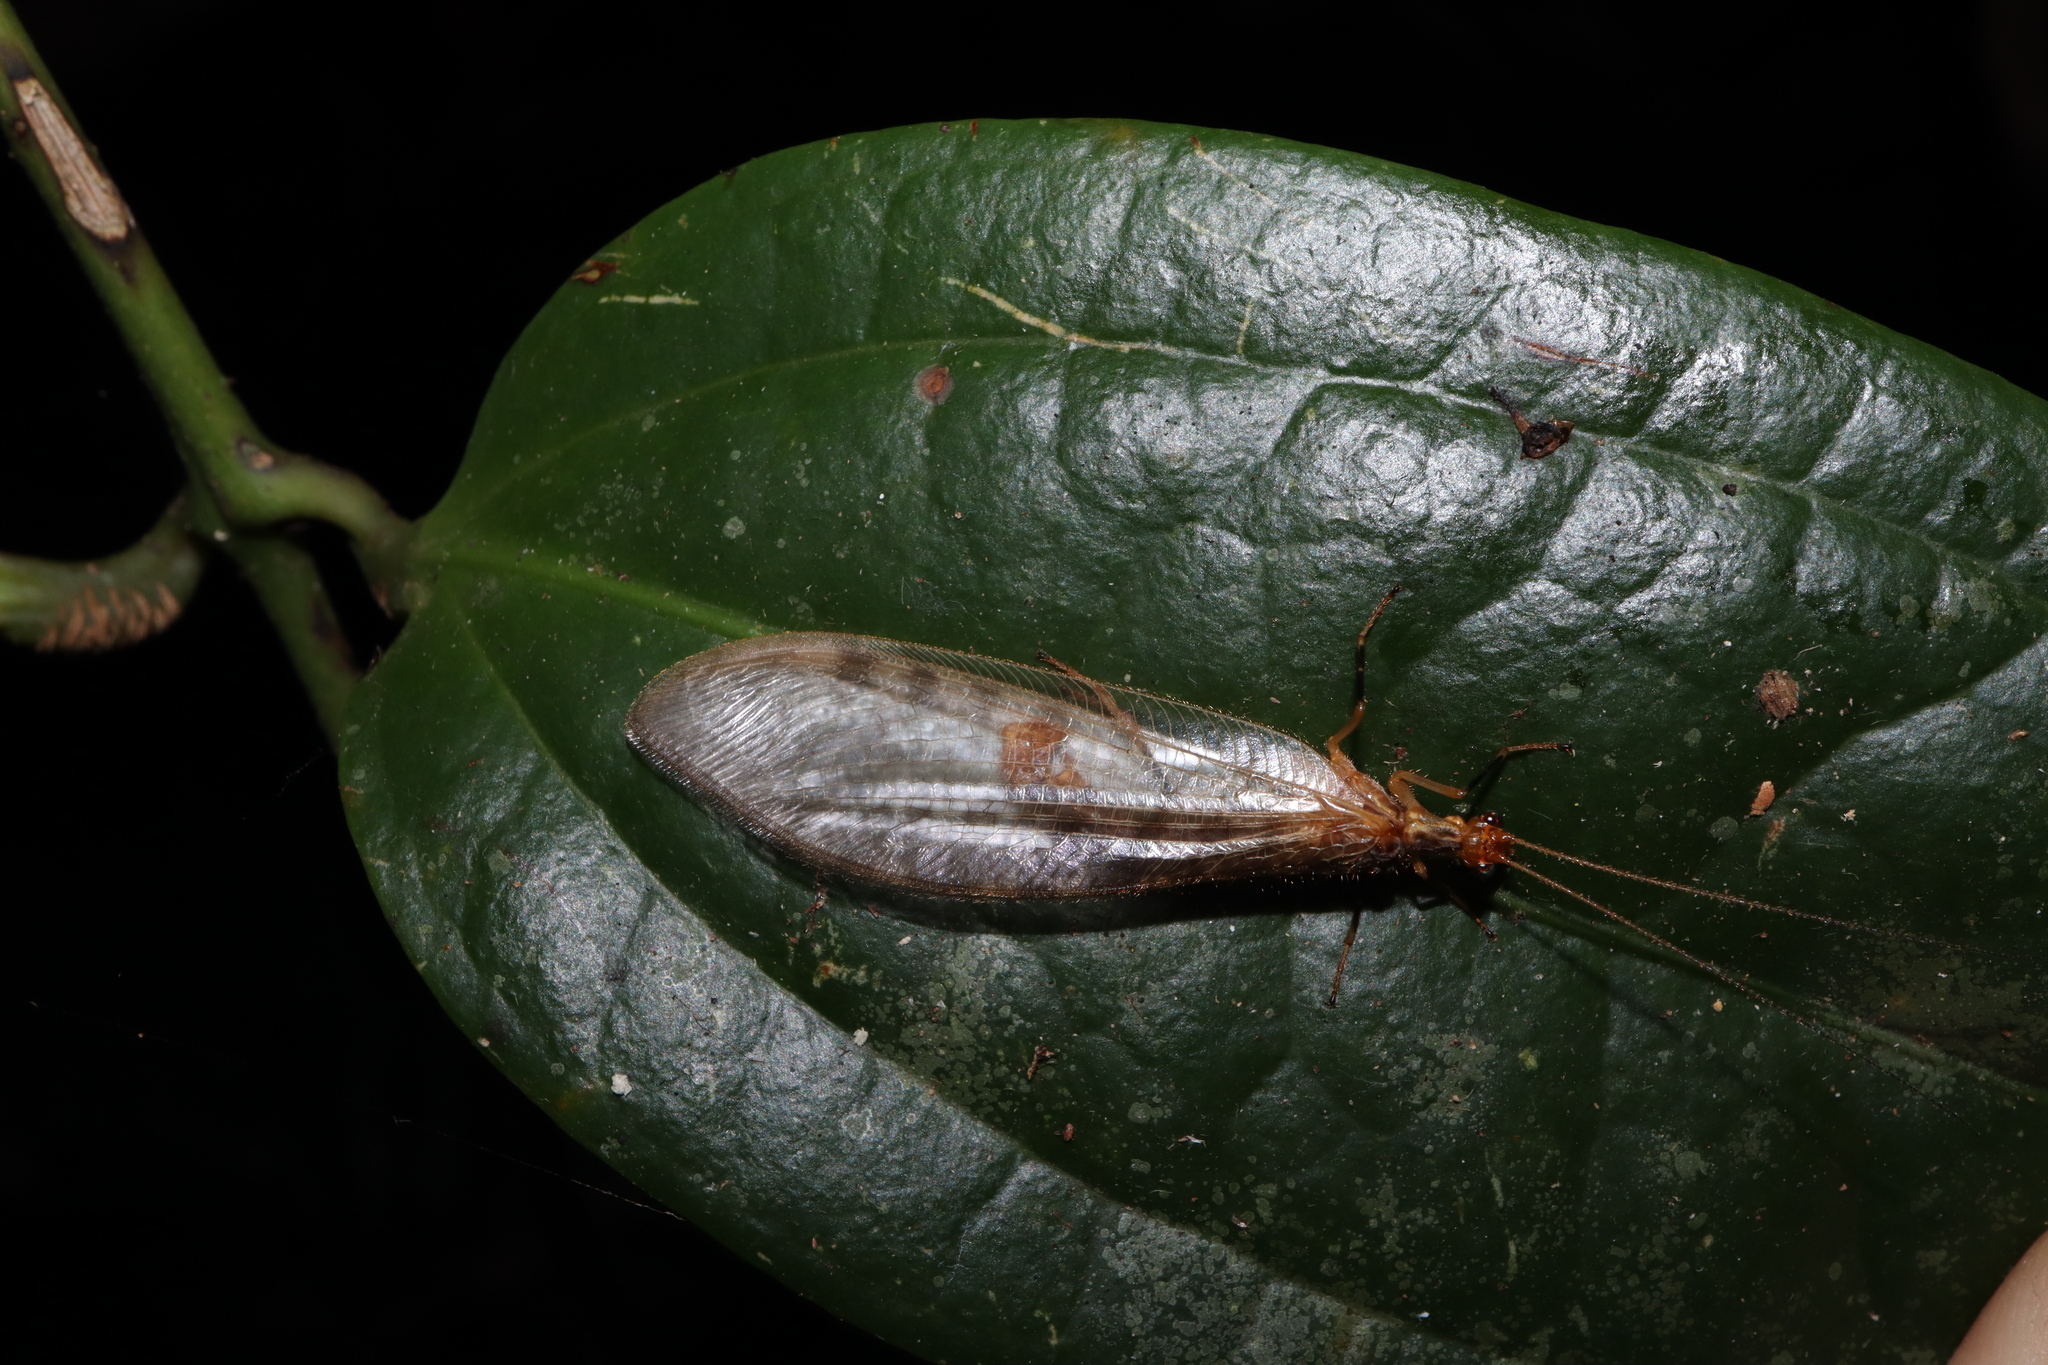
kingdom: Animalia
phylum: Arthropoda
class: Insecta
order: Neuroptera
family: Osmylidae
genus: Stenolysmus
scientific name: Stenolysmus extraneus
